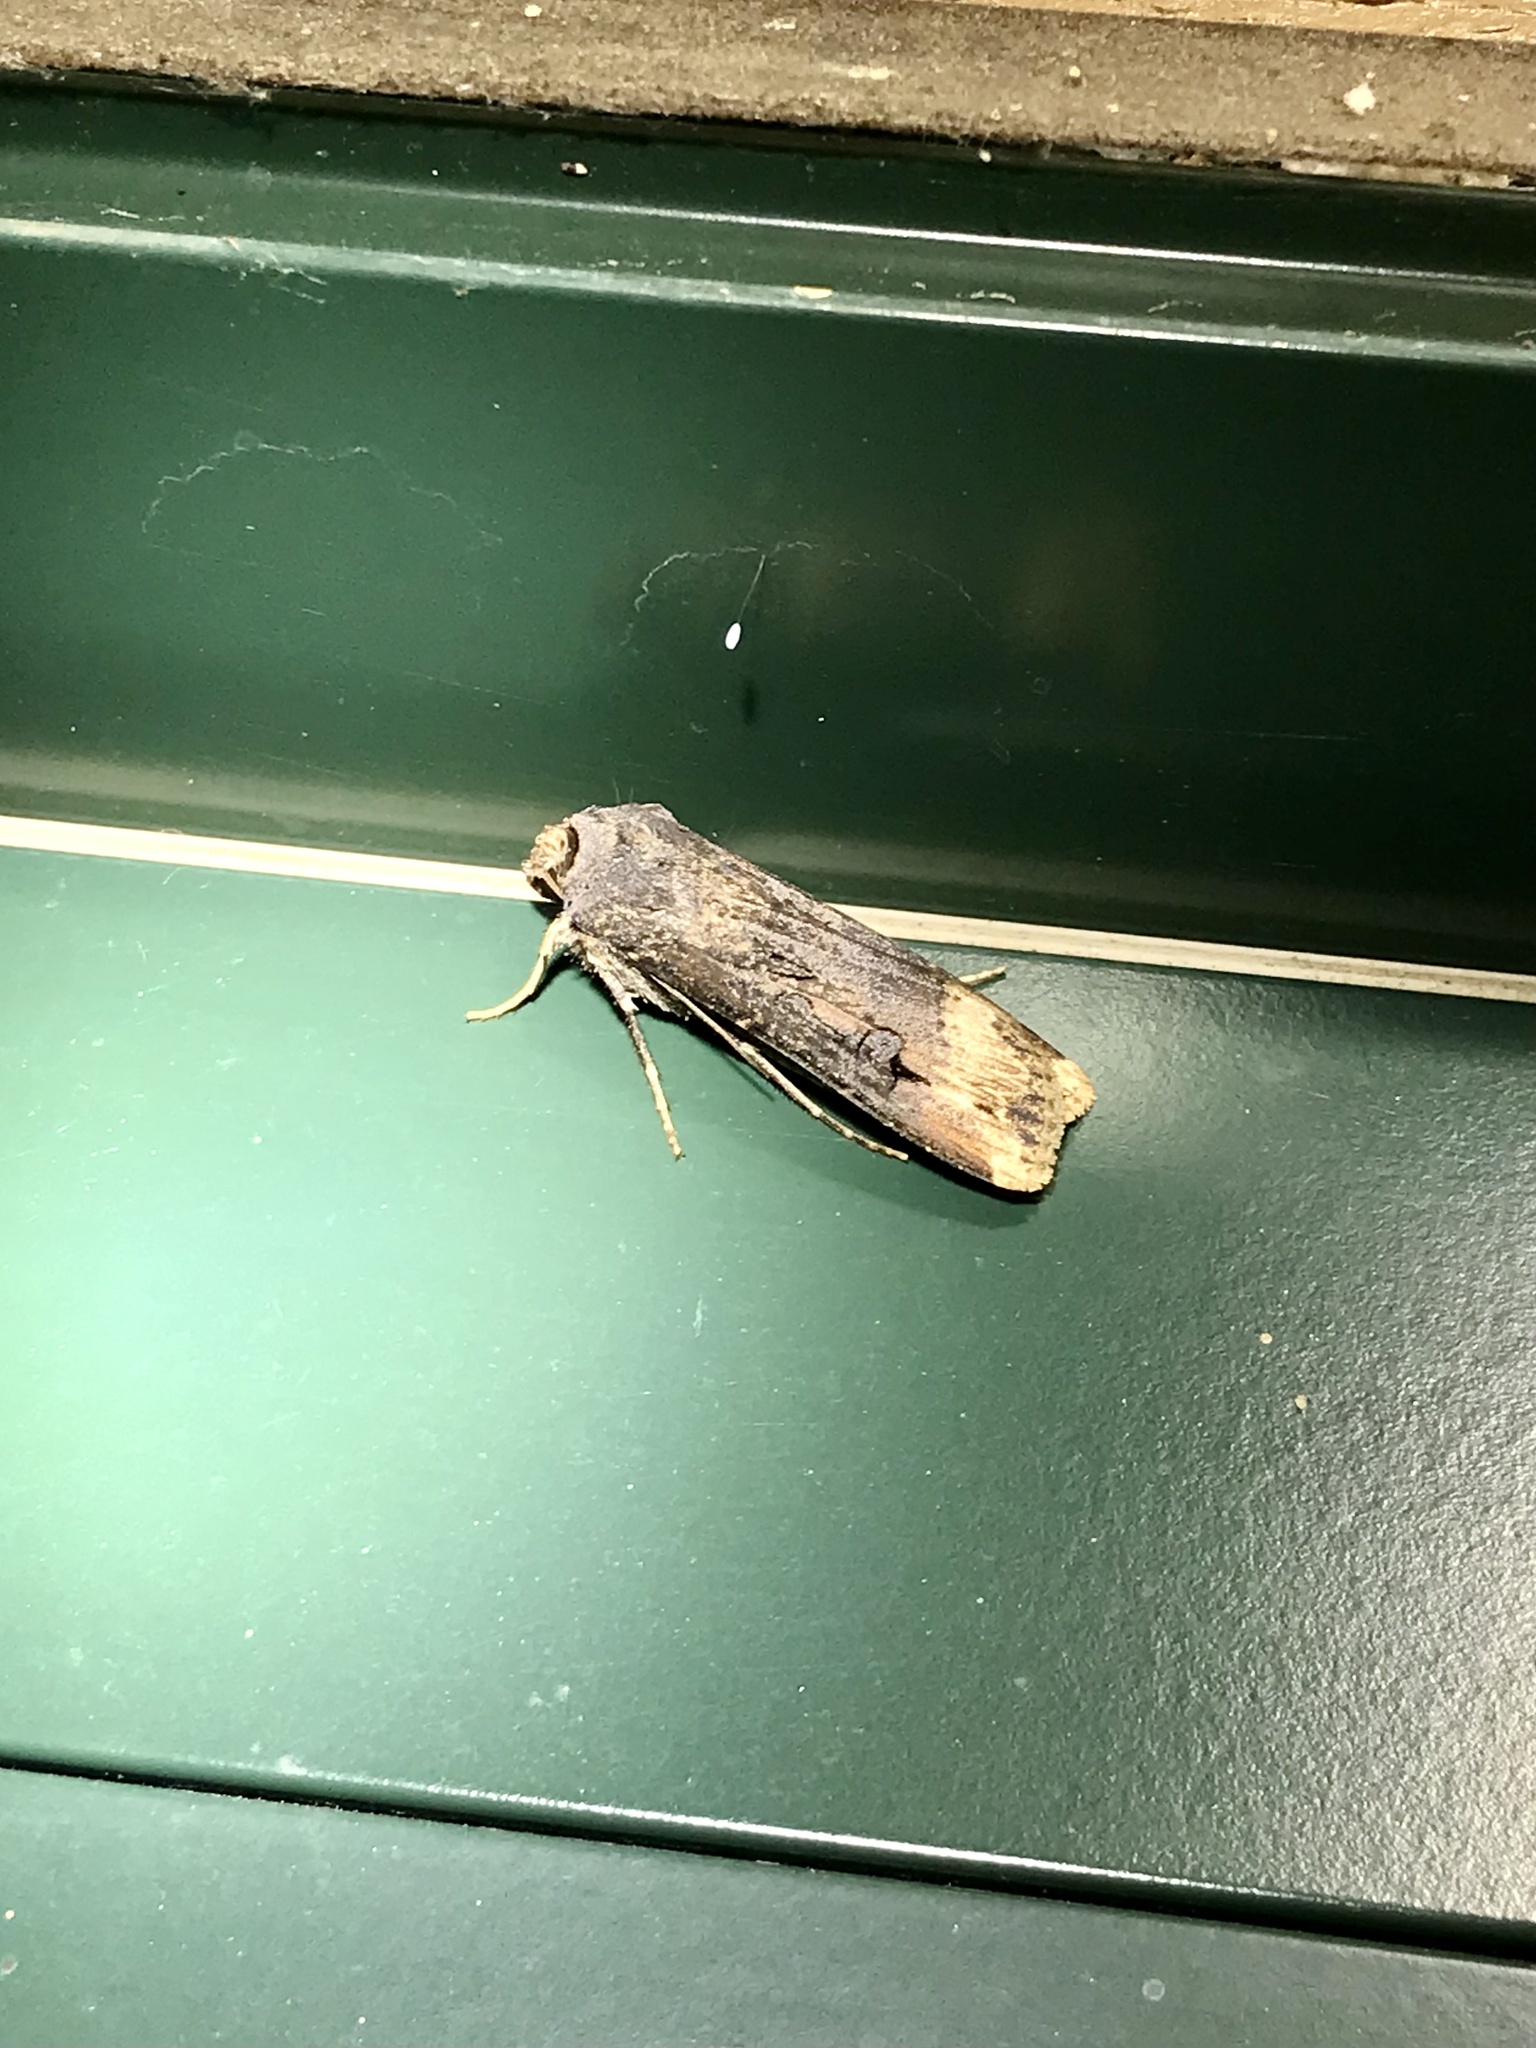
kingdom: Animalia
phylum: Arthropoda
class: Insecta
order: Lepidoptera
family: Noctuidae
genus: Agrotis
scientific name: Agrotis ipsilon
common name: Dark sword-grass
